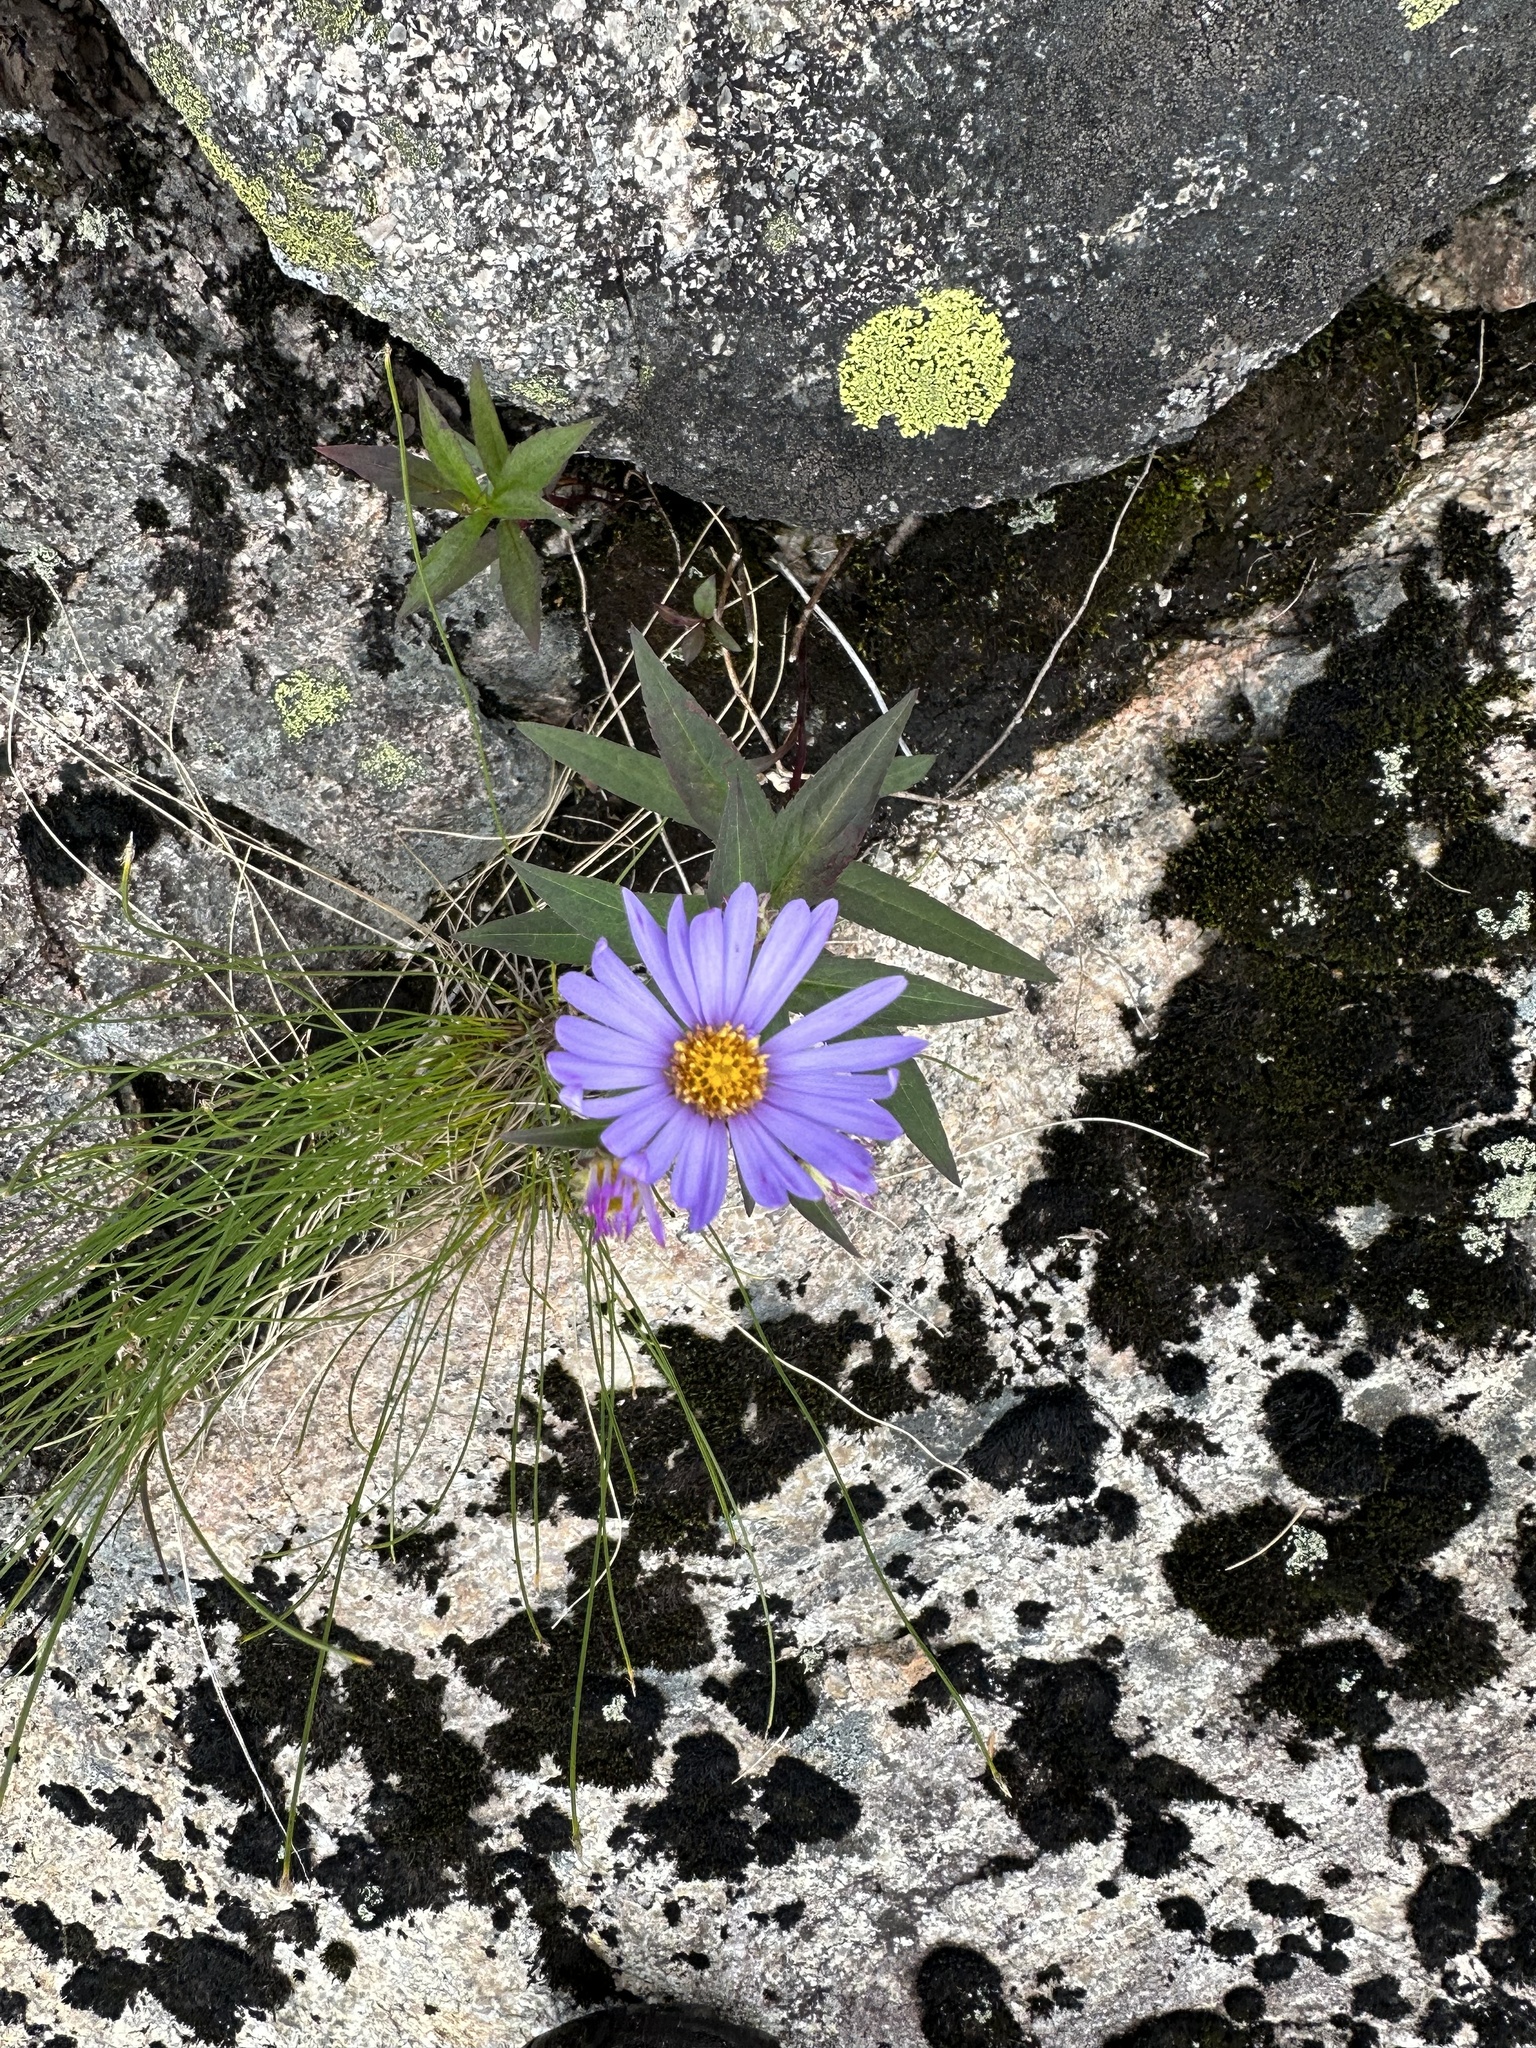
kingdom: Plantae
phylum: Tracheophyta
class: Magnoliopsida
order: Asterales
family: Asteraceae
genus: Eurybia
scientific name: Eurybia radula
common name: Low rough aster
